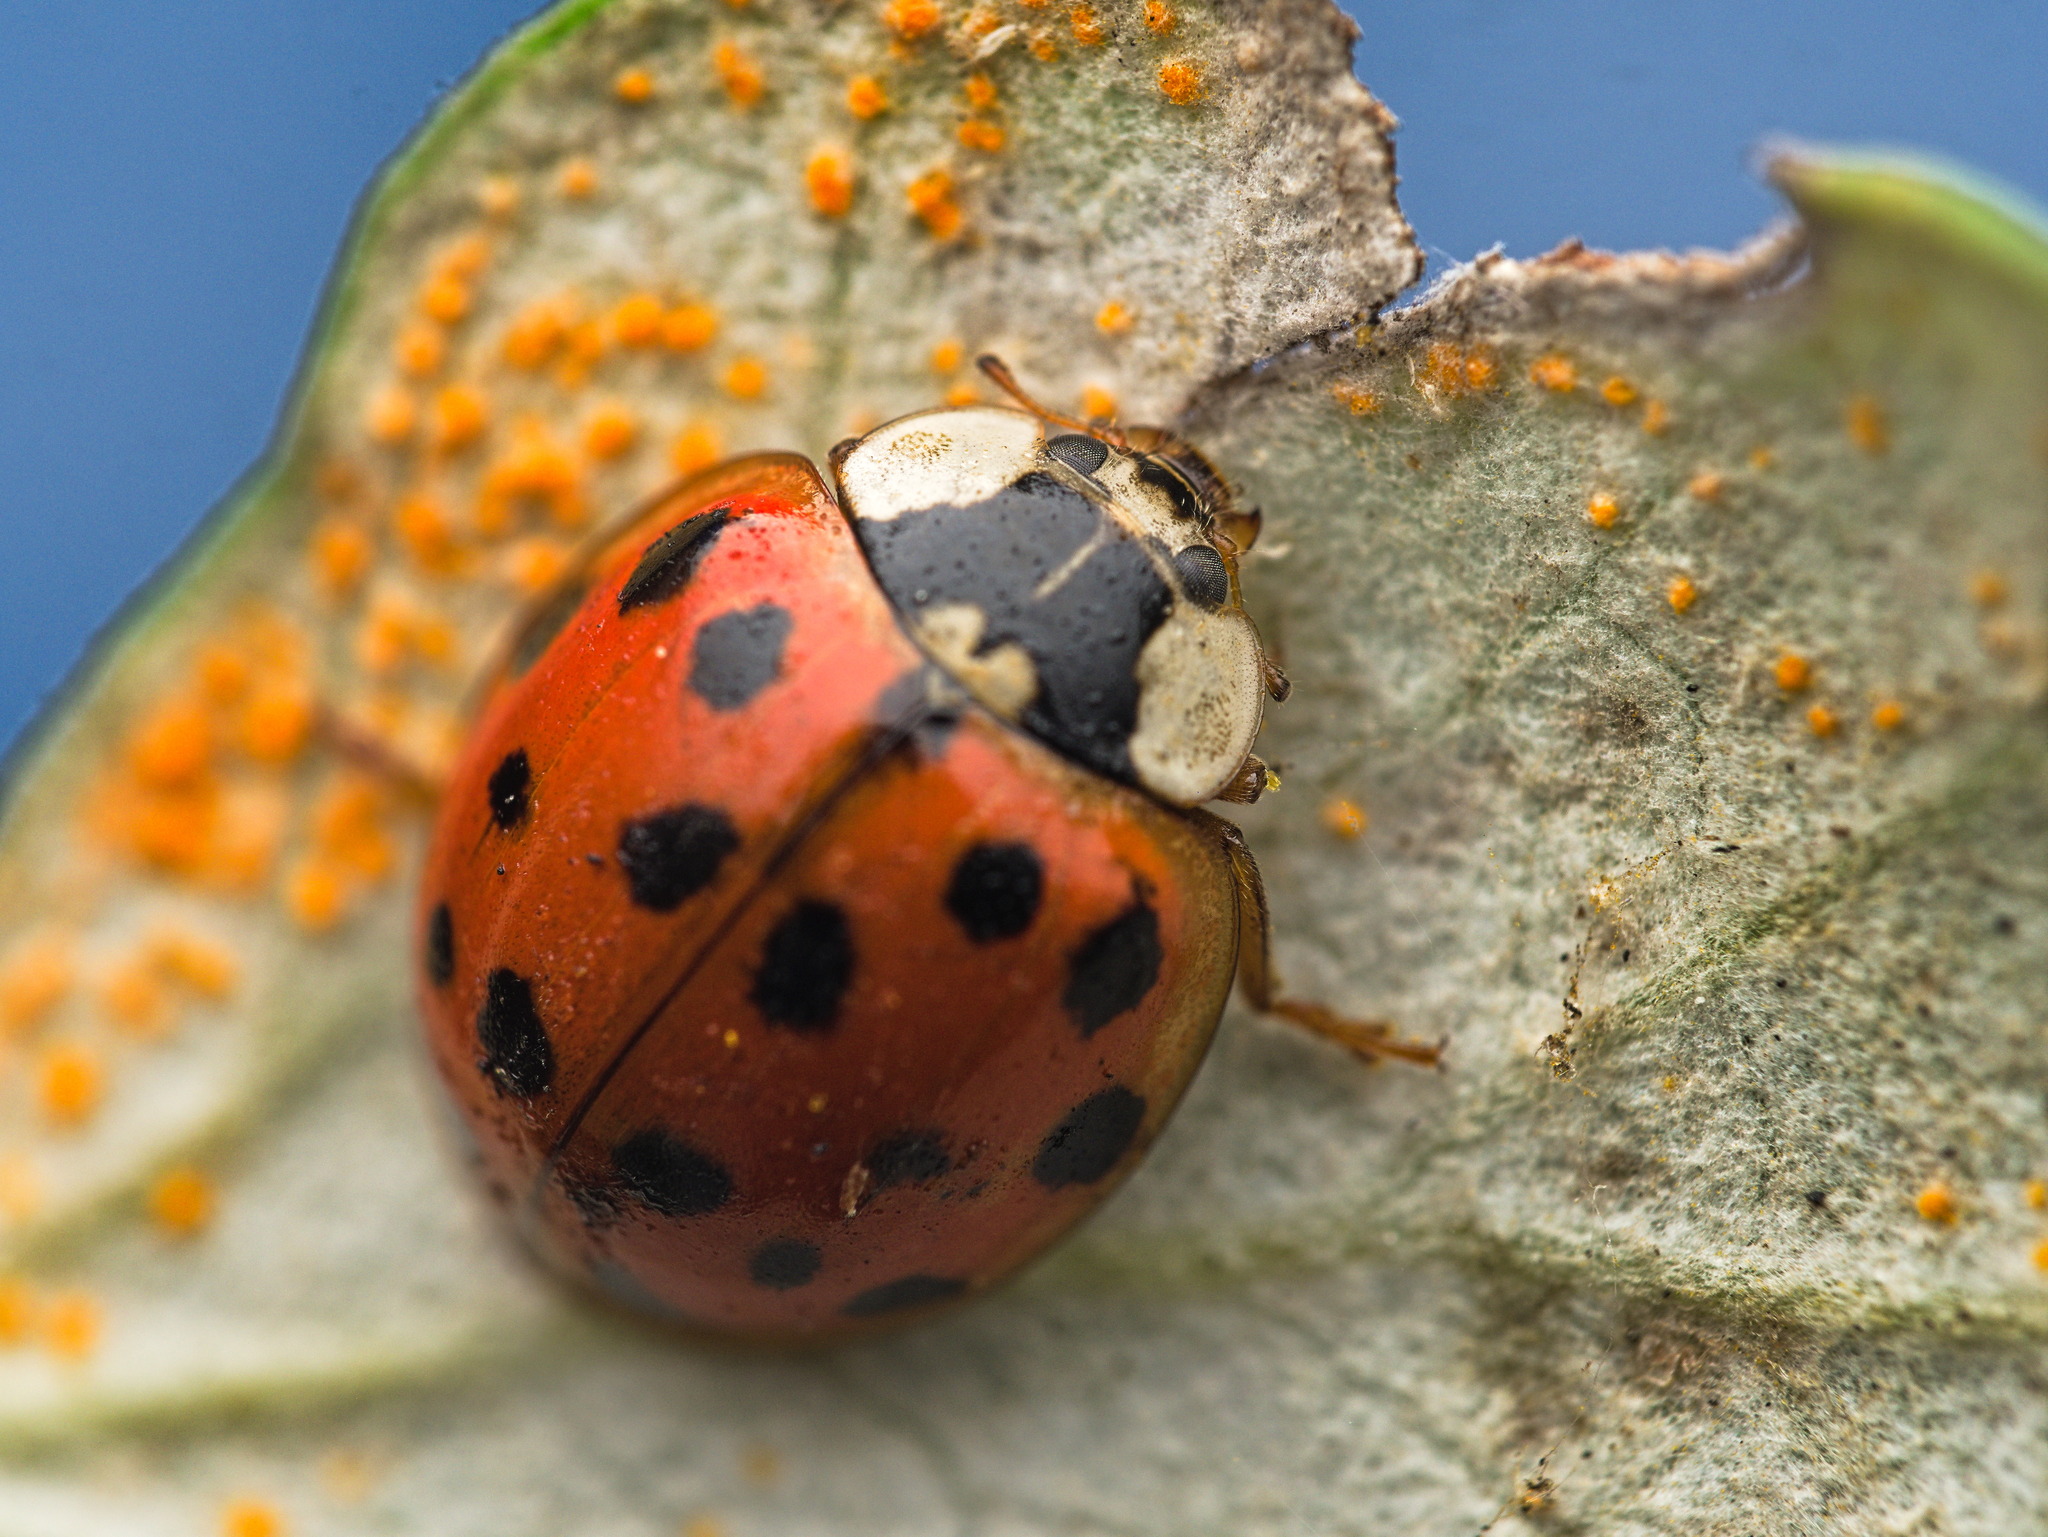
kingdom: Animalia
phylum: Arthropoda
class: Insecta
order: Coleoptera
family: Coccinellidae
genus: Harmonia
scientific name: Harmonia axyridis
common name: Harlequin ladybird
